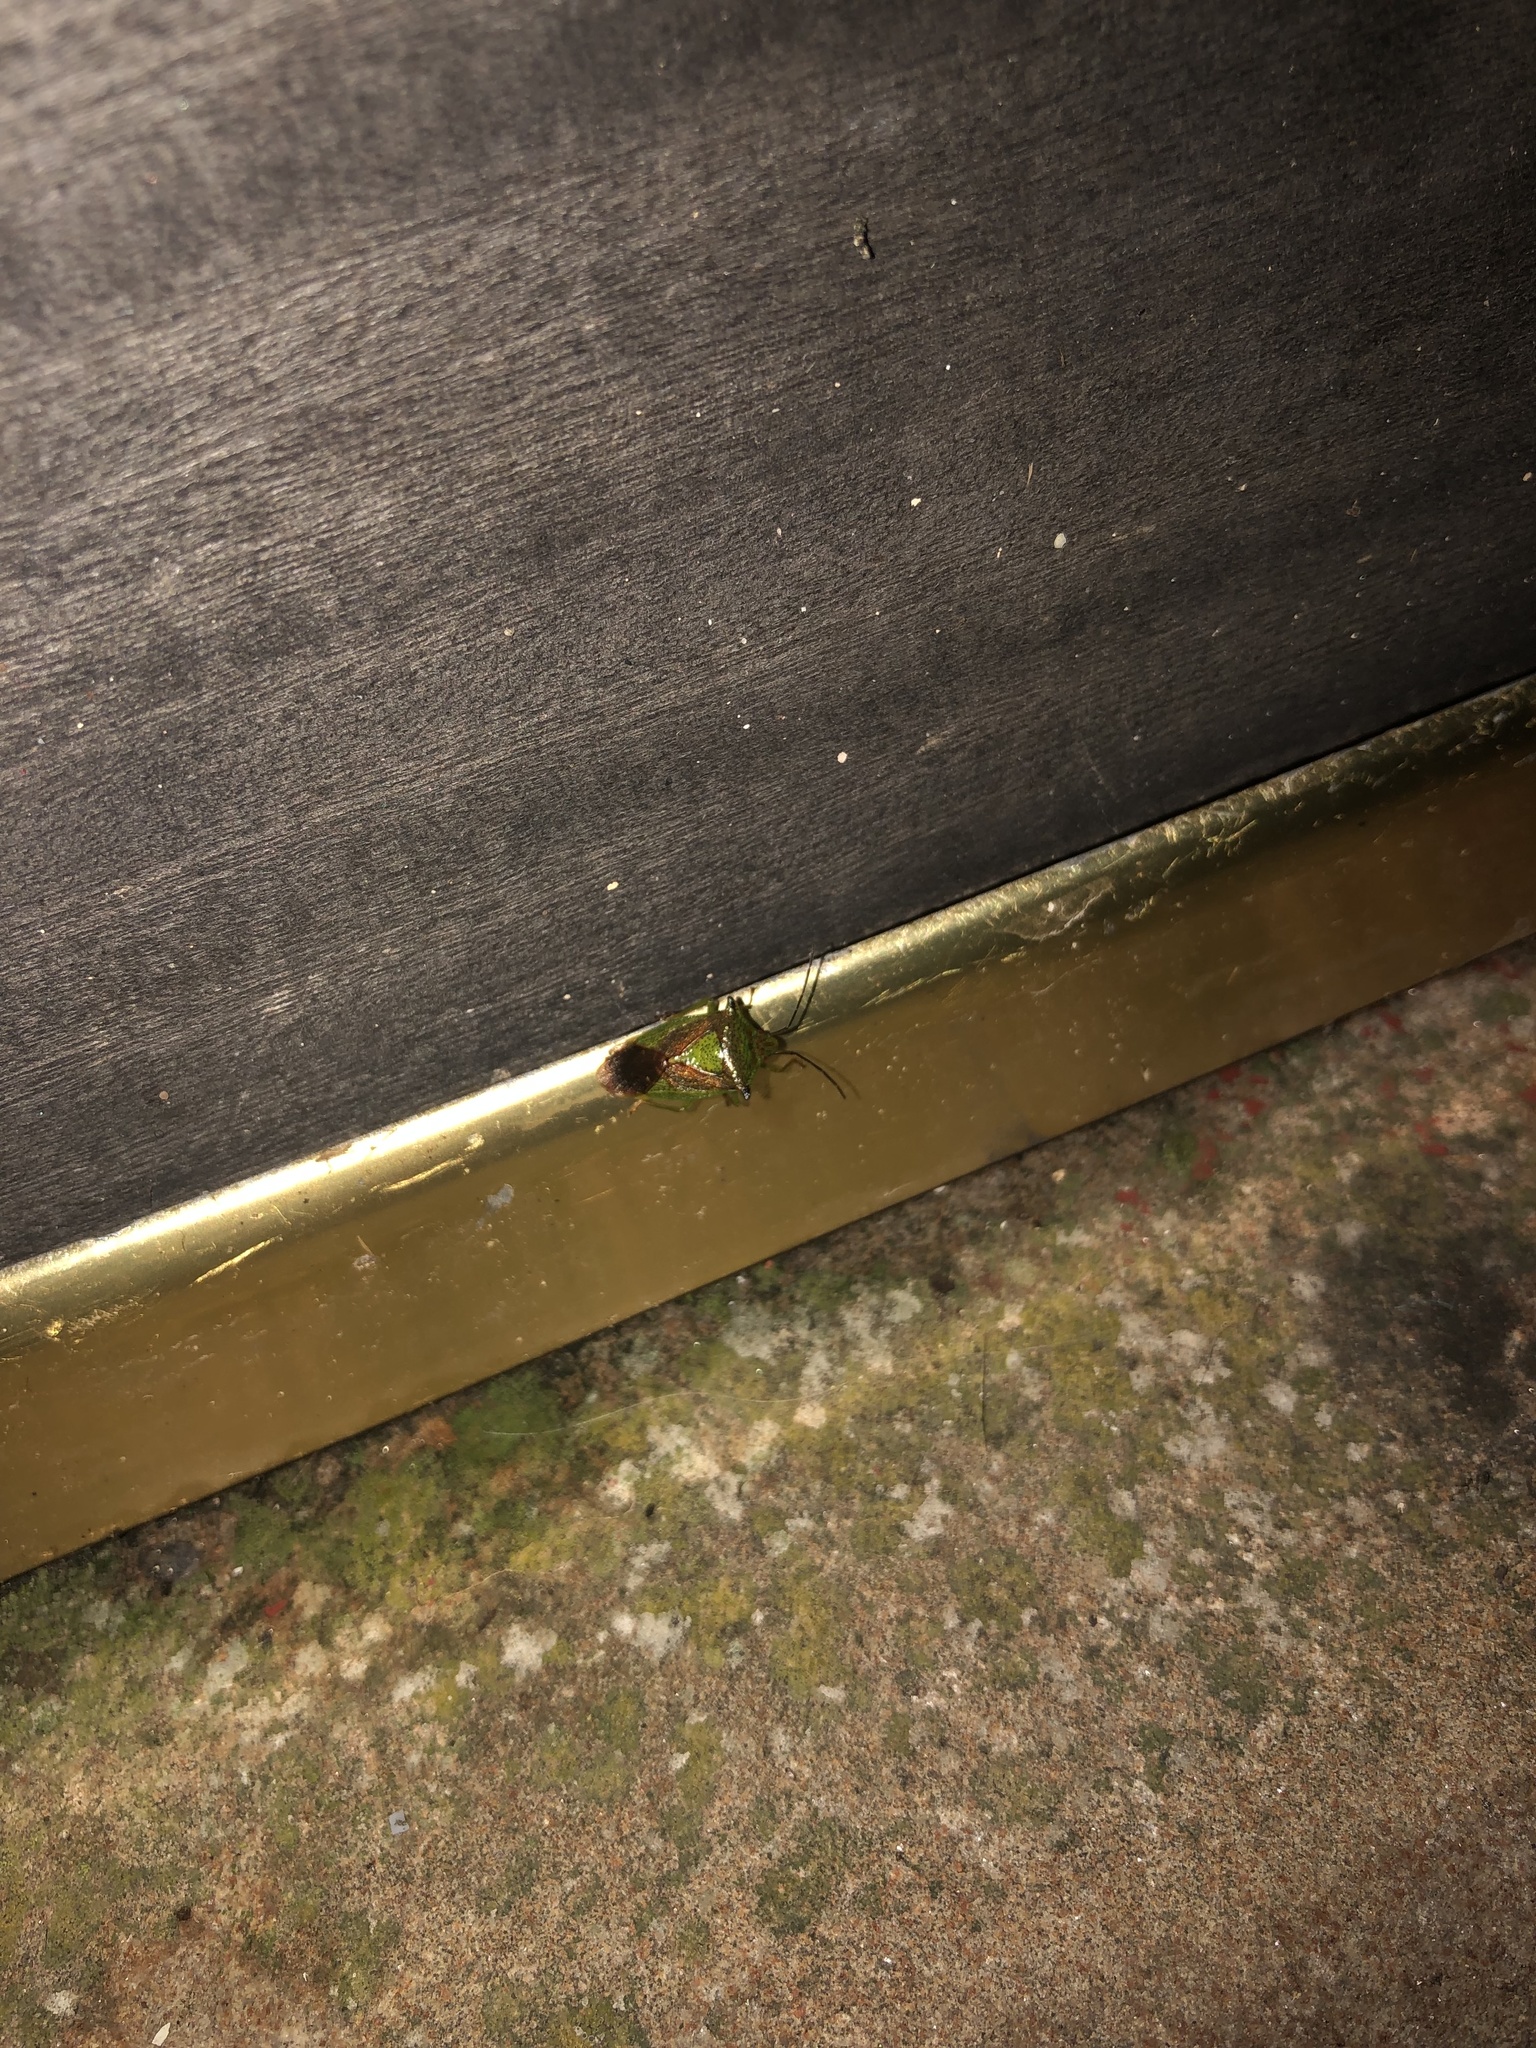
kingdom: Animalia
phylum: Arthropoda
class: Insecta
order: Hemiptera
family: Acanthosomatidae
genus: Acanthosoma
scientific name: Acanthosoma haemorrhoidale
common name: Hawthorn shieldbug
